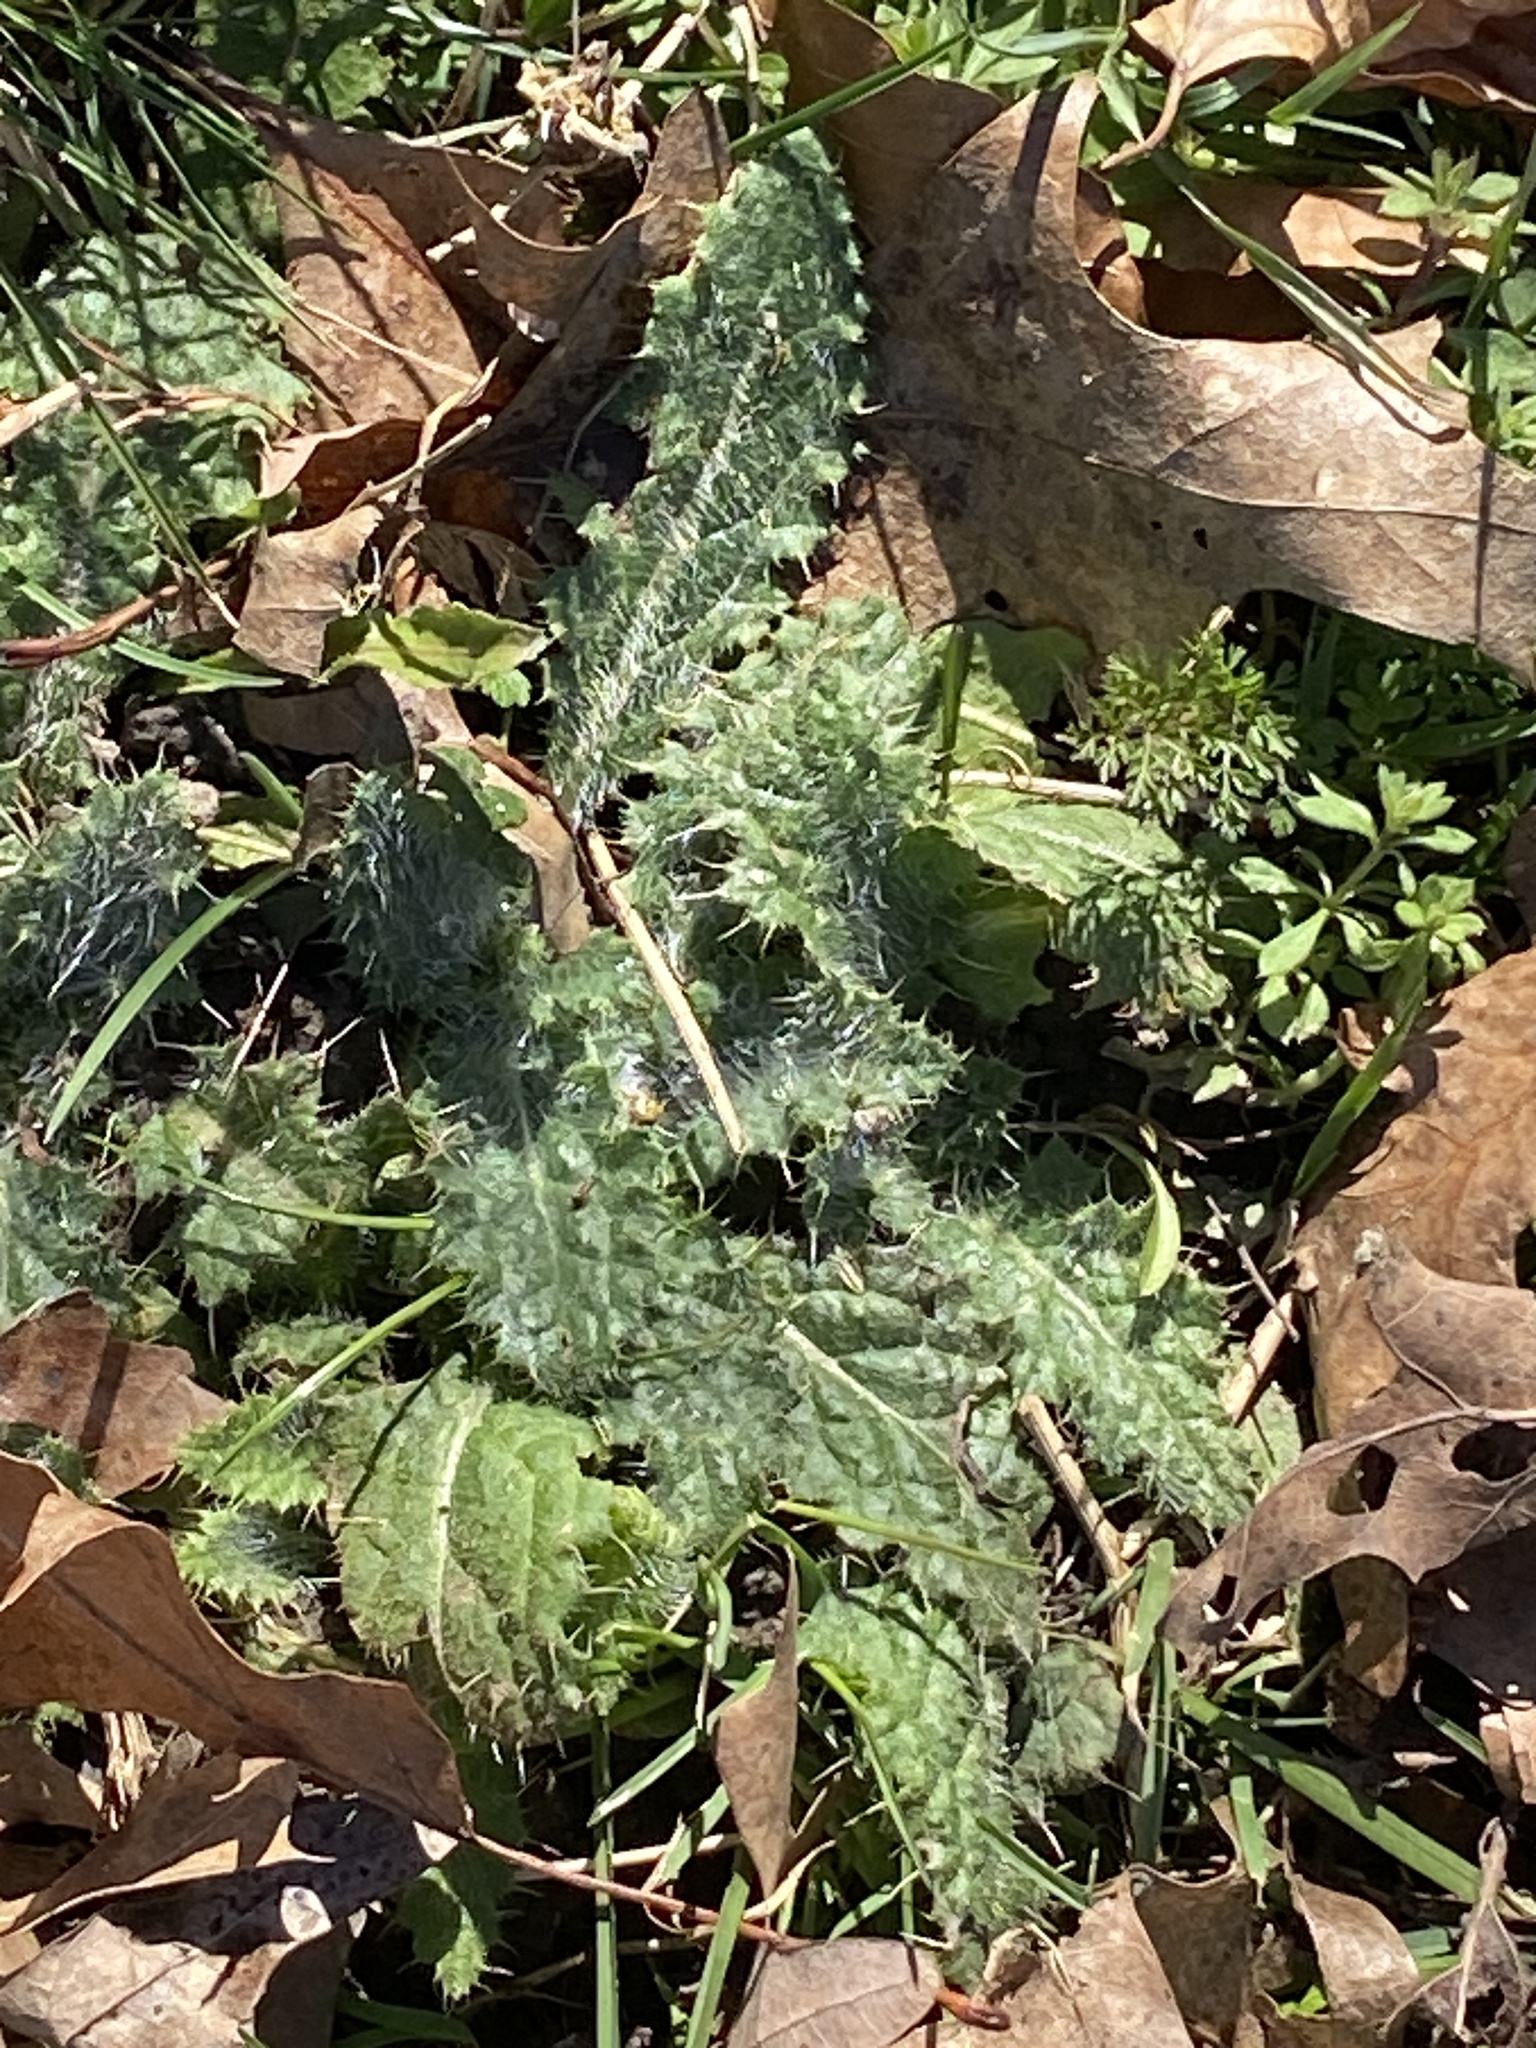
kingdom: Plantae
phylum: Tracheophyta
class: Magnoliopsida
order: Asterales
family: Asteraceae
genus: Cirsium
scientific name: Cirsium vulgare
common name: Bull thistle
